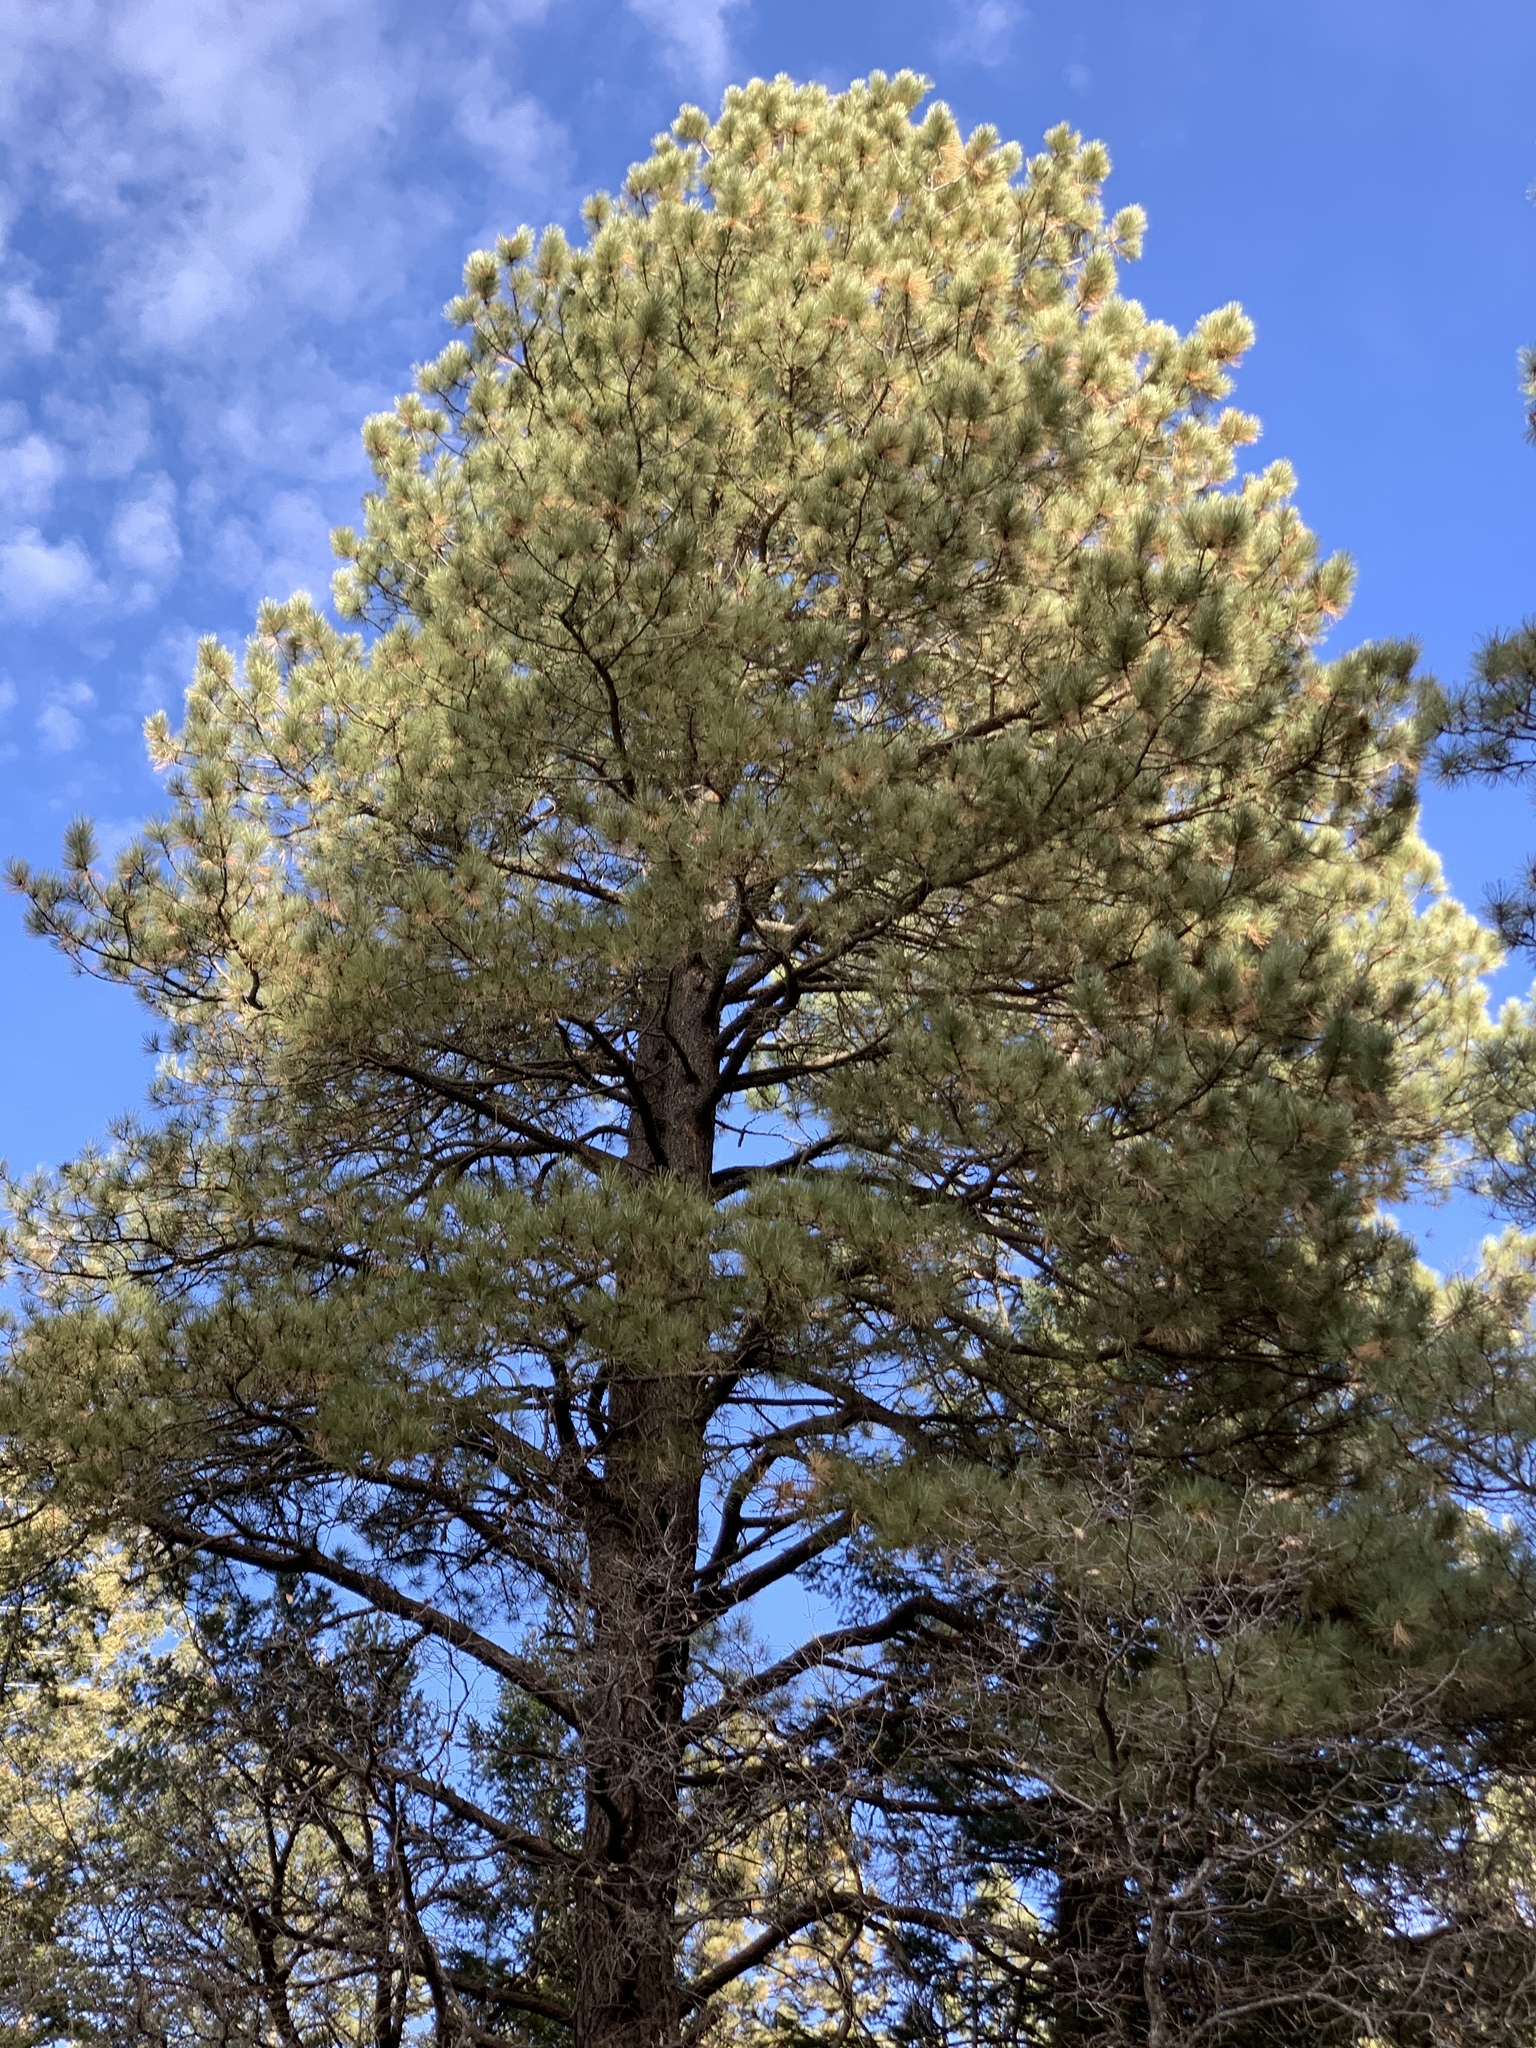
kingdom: Plantae
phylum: Tracheophyta
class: Pinopsida
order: Pinales
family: Pinaceae
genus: Pinus
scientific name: Pinus ponderosa
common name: Western yellow-pine
